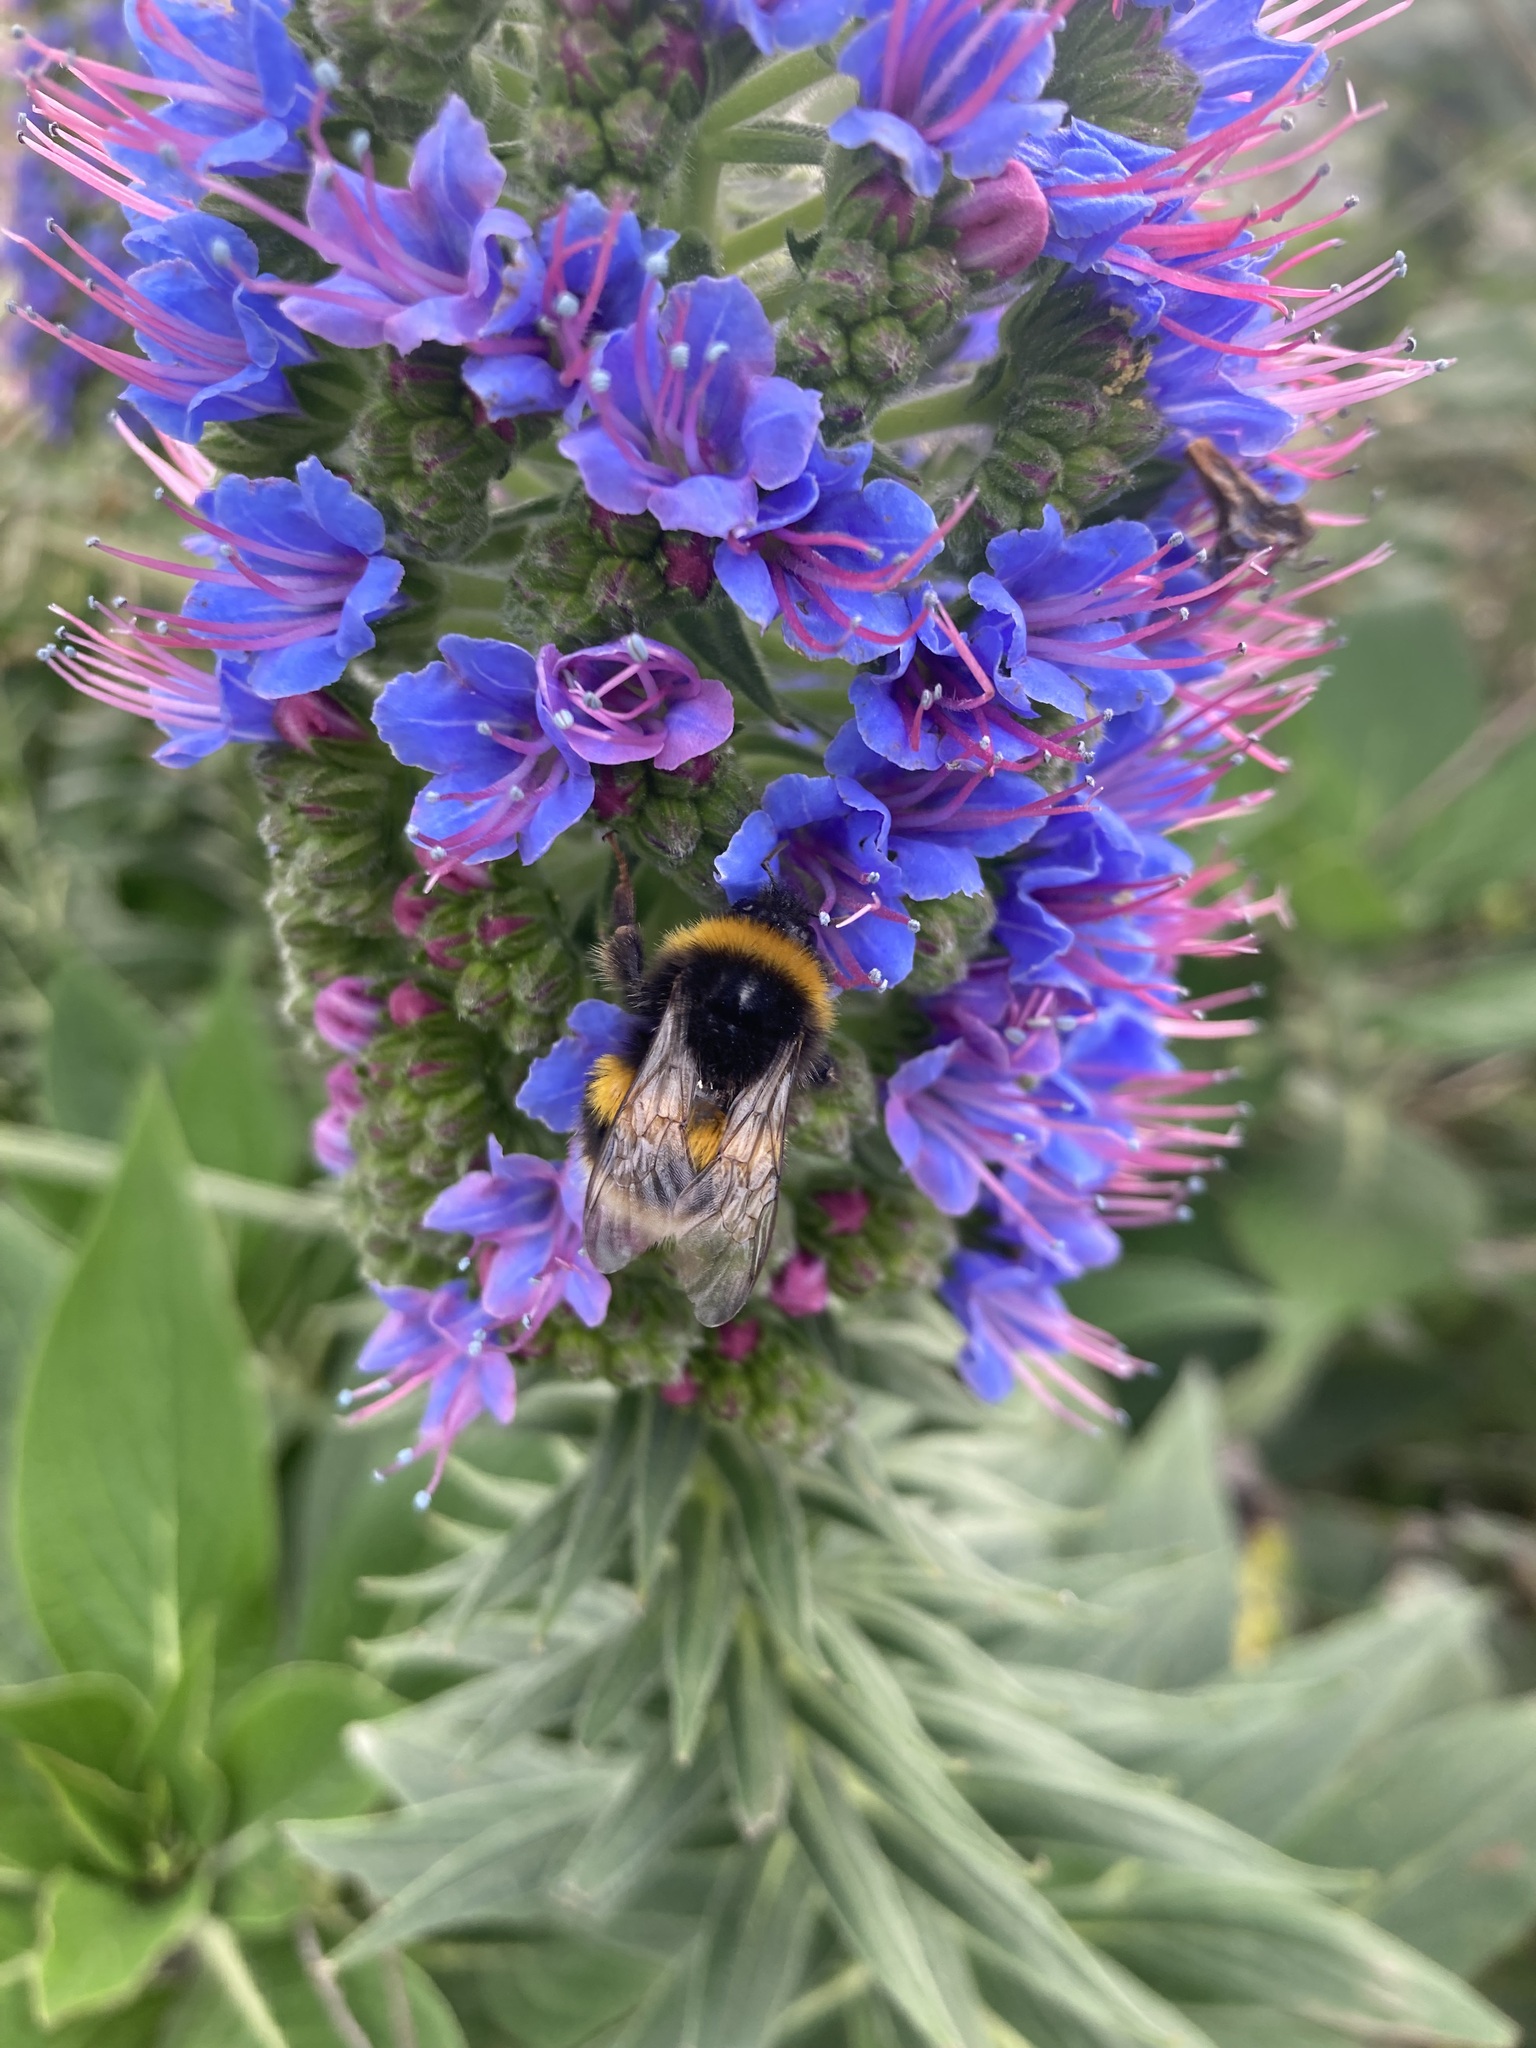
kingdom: Animalia
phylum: Arthropoda
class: Insecta
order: Hymenoptera
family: Apidae
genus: Bombus
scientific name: Bombus terrestris
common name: Buff-tailed bumblebee
